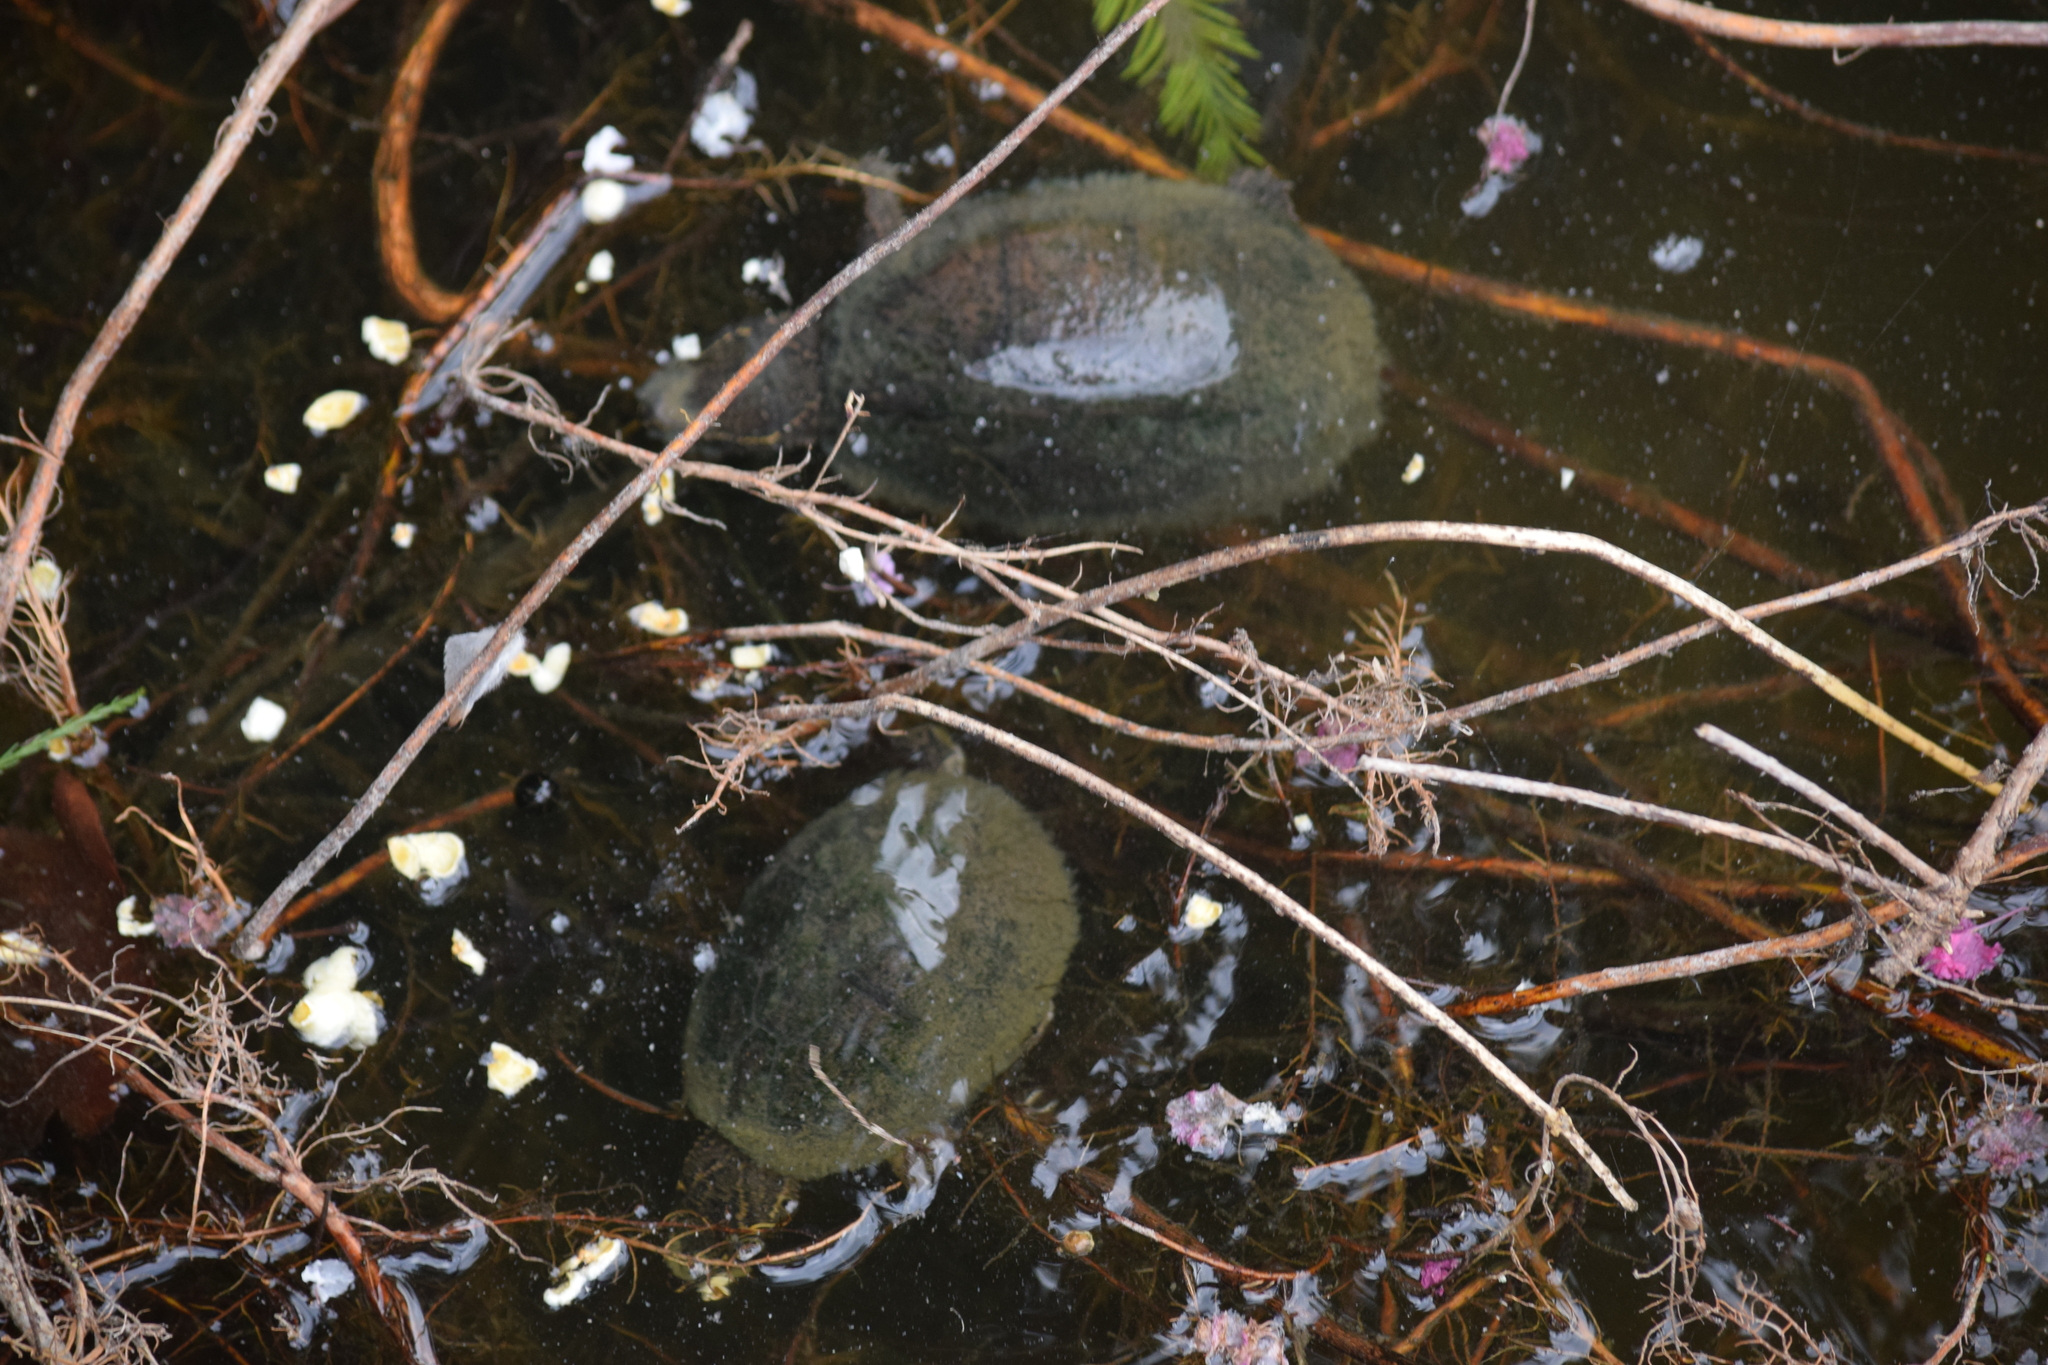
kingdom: Animalia
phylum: Chordata
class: Testudines
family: Kinosternidae
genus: Sternotherus
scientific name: Sternotherus odoratus
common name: Common musk turtle
